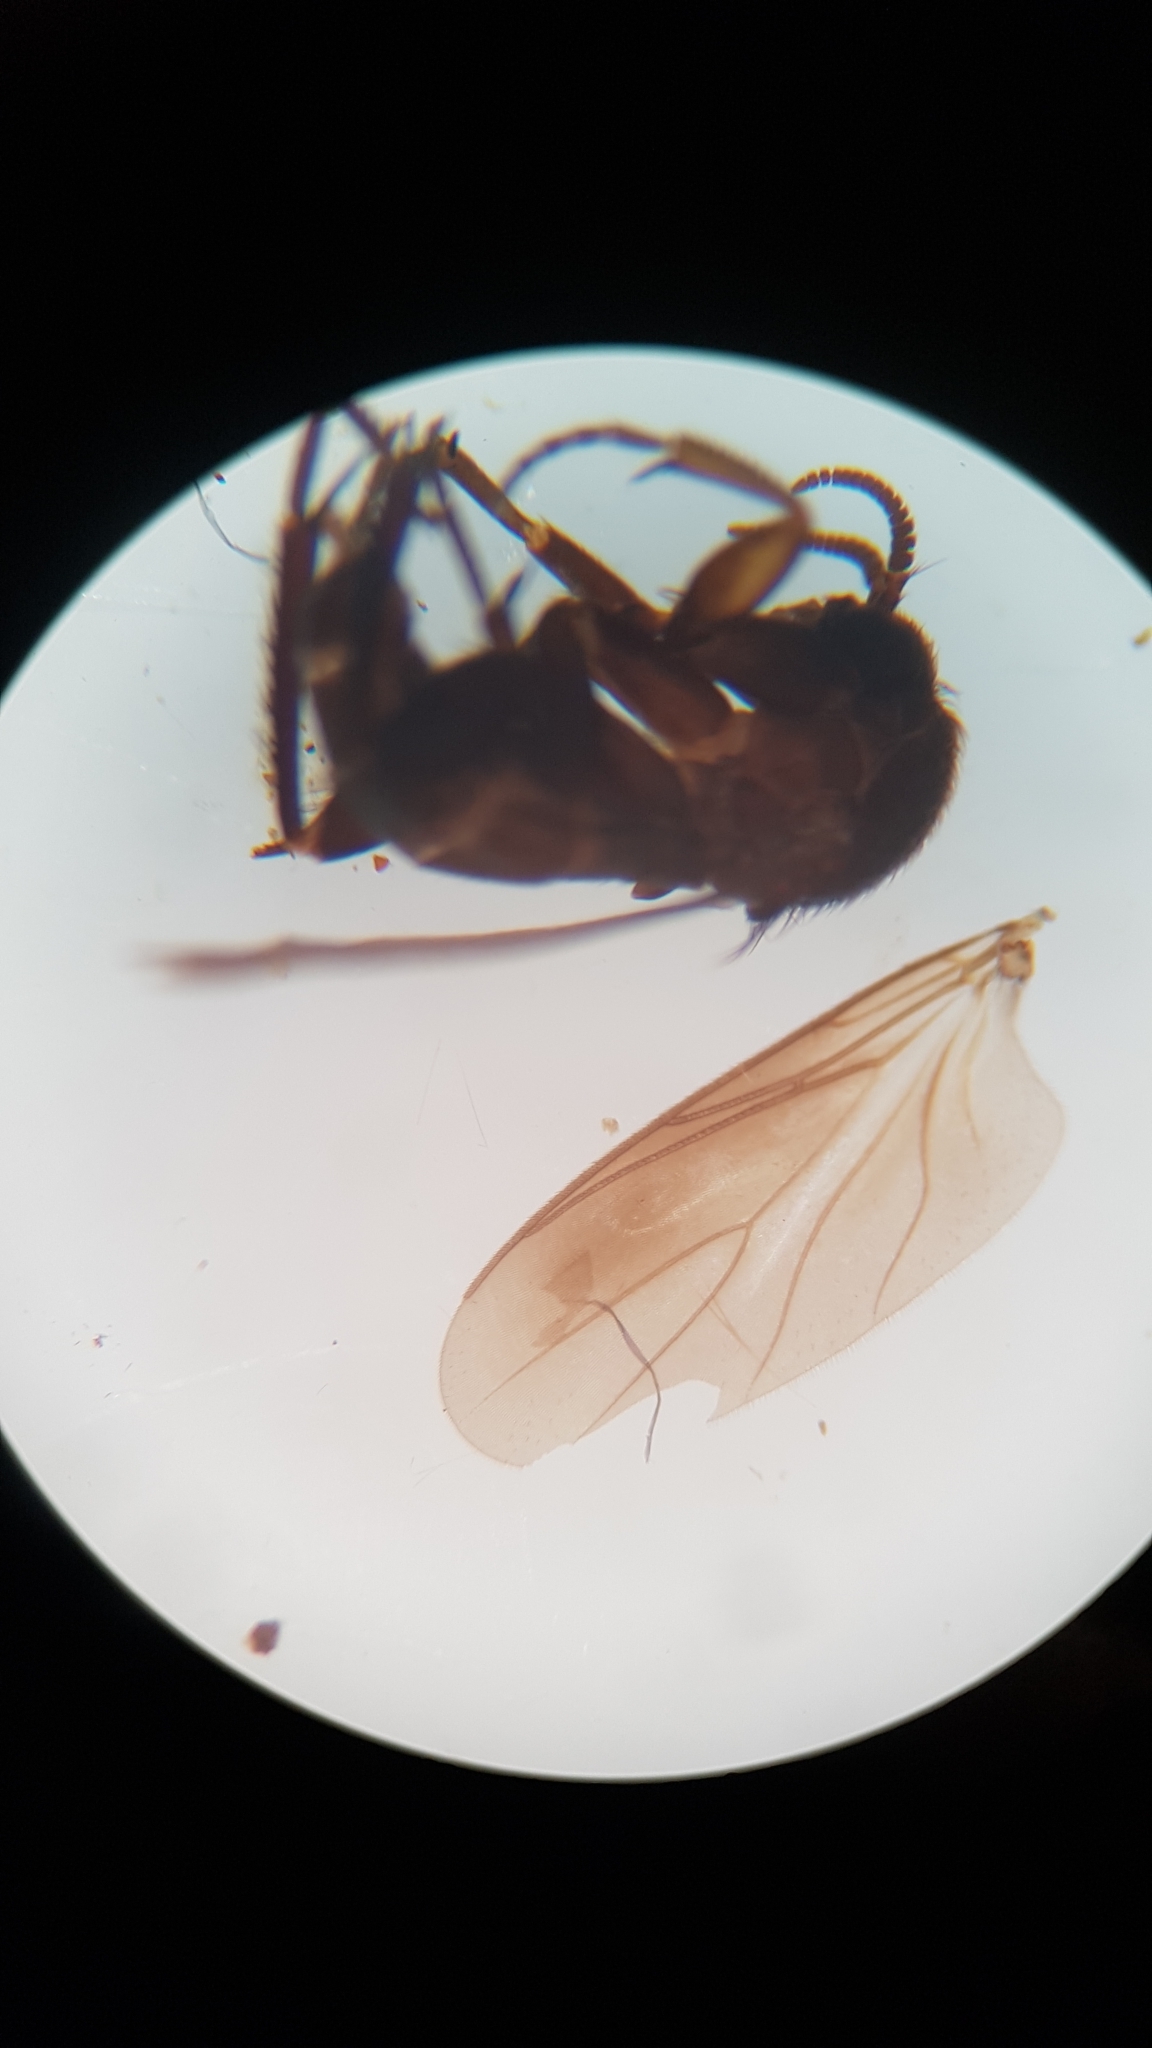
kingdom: Animalia
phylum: Arthropoda
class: Insecta
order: Diptera
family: Mycetophilidae
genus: Cawthronia
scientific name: Cawthronia nigra
